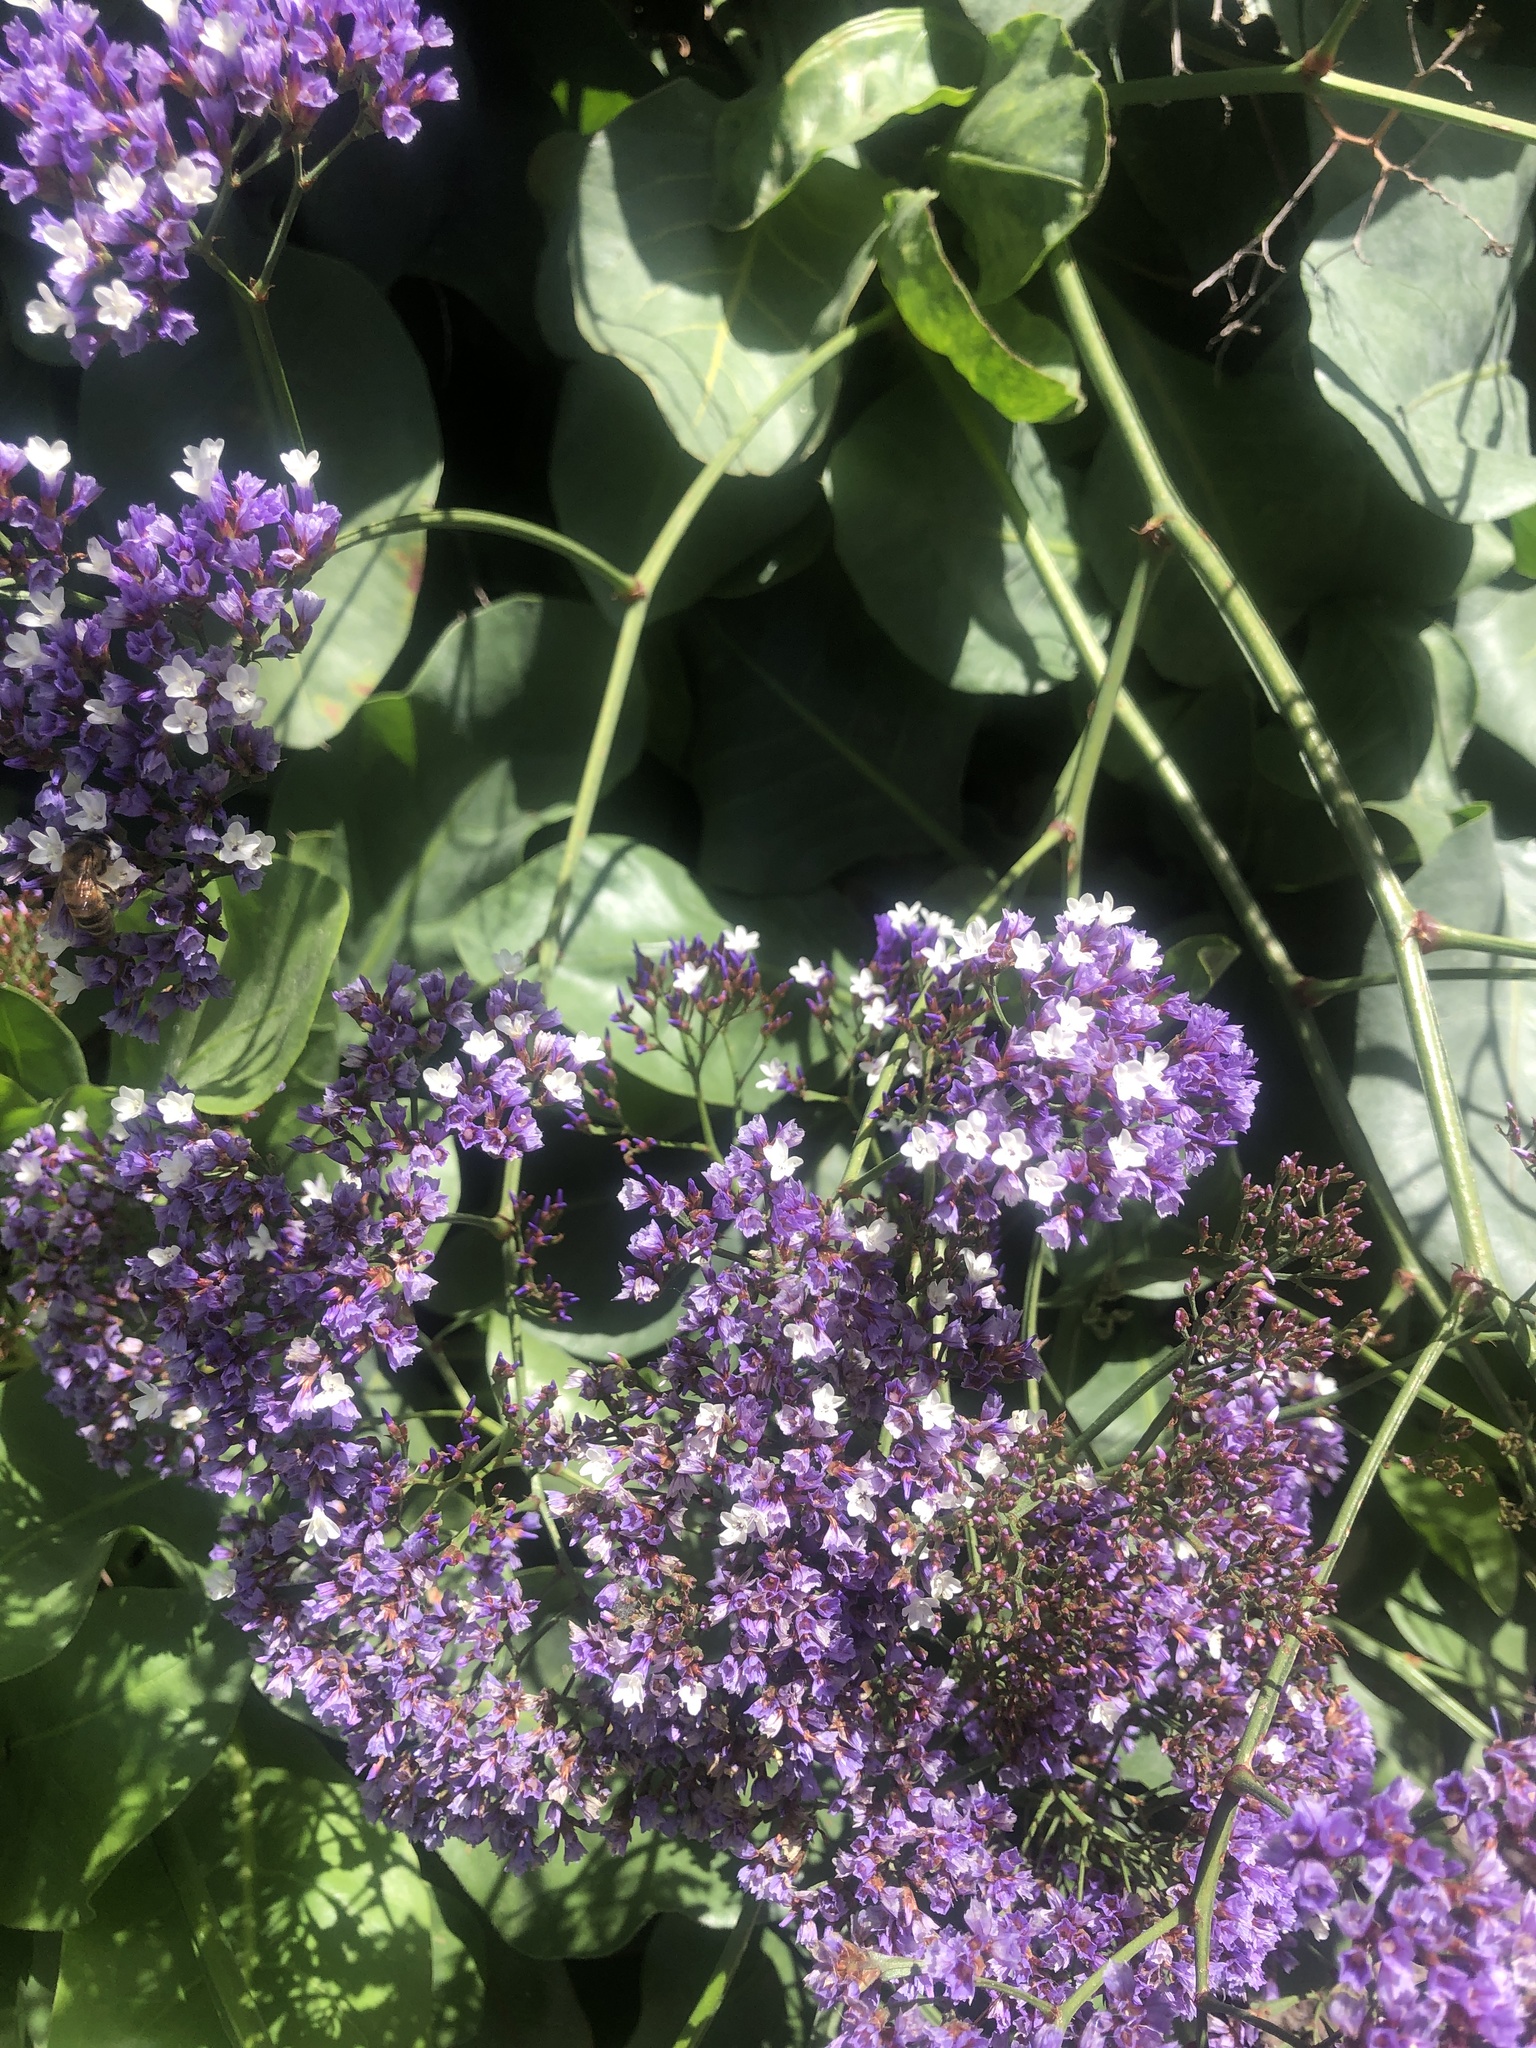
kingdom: Plantae
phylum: Tracheophyta
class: Magnoliopsida
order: Caryophyllales
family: Plumbaginaceae
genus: Limonium
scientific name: Limonium perezii
